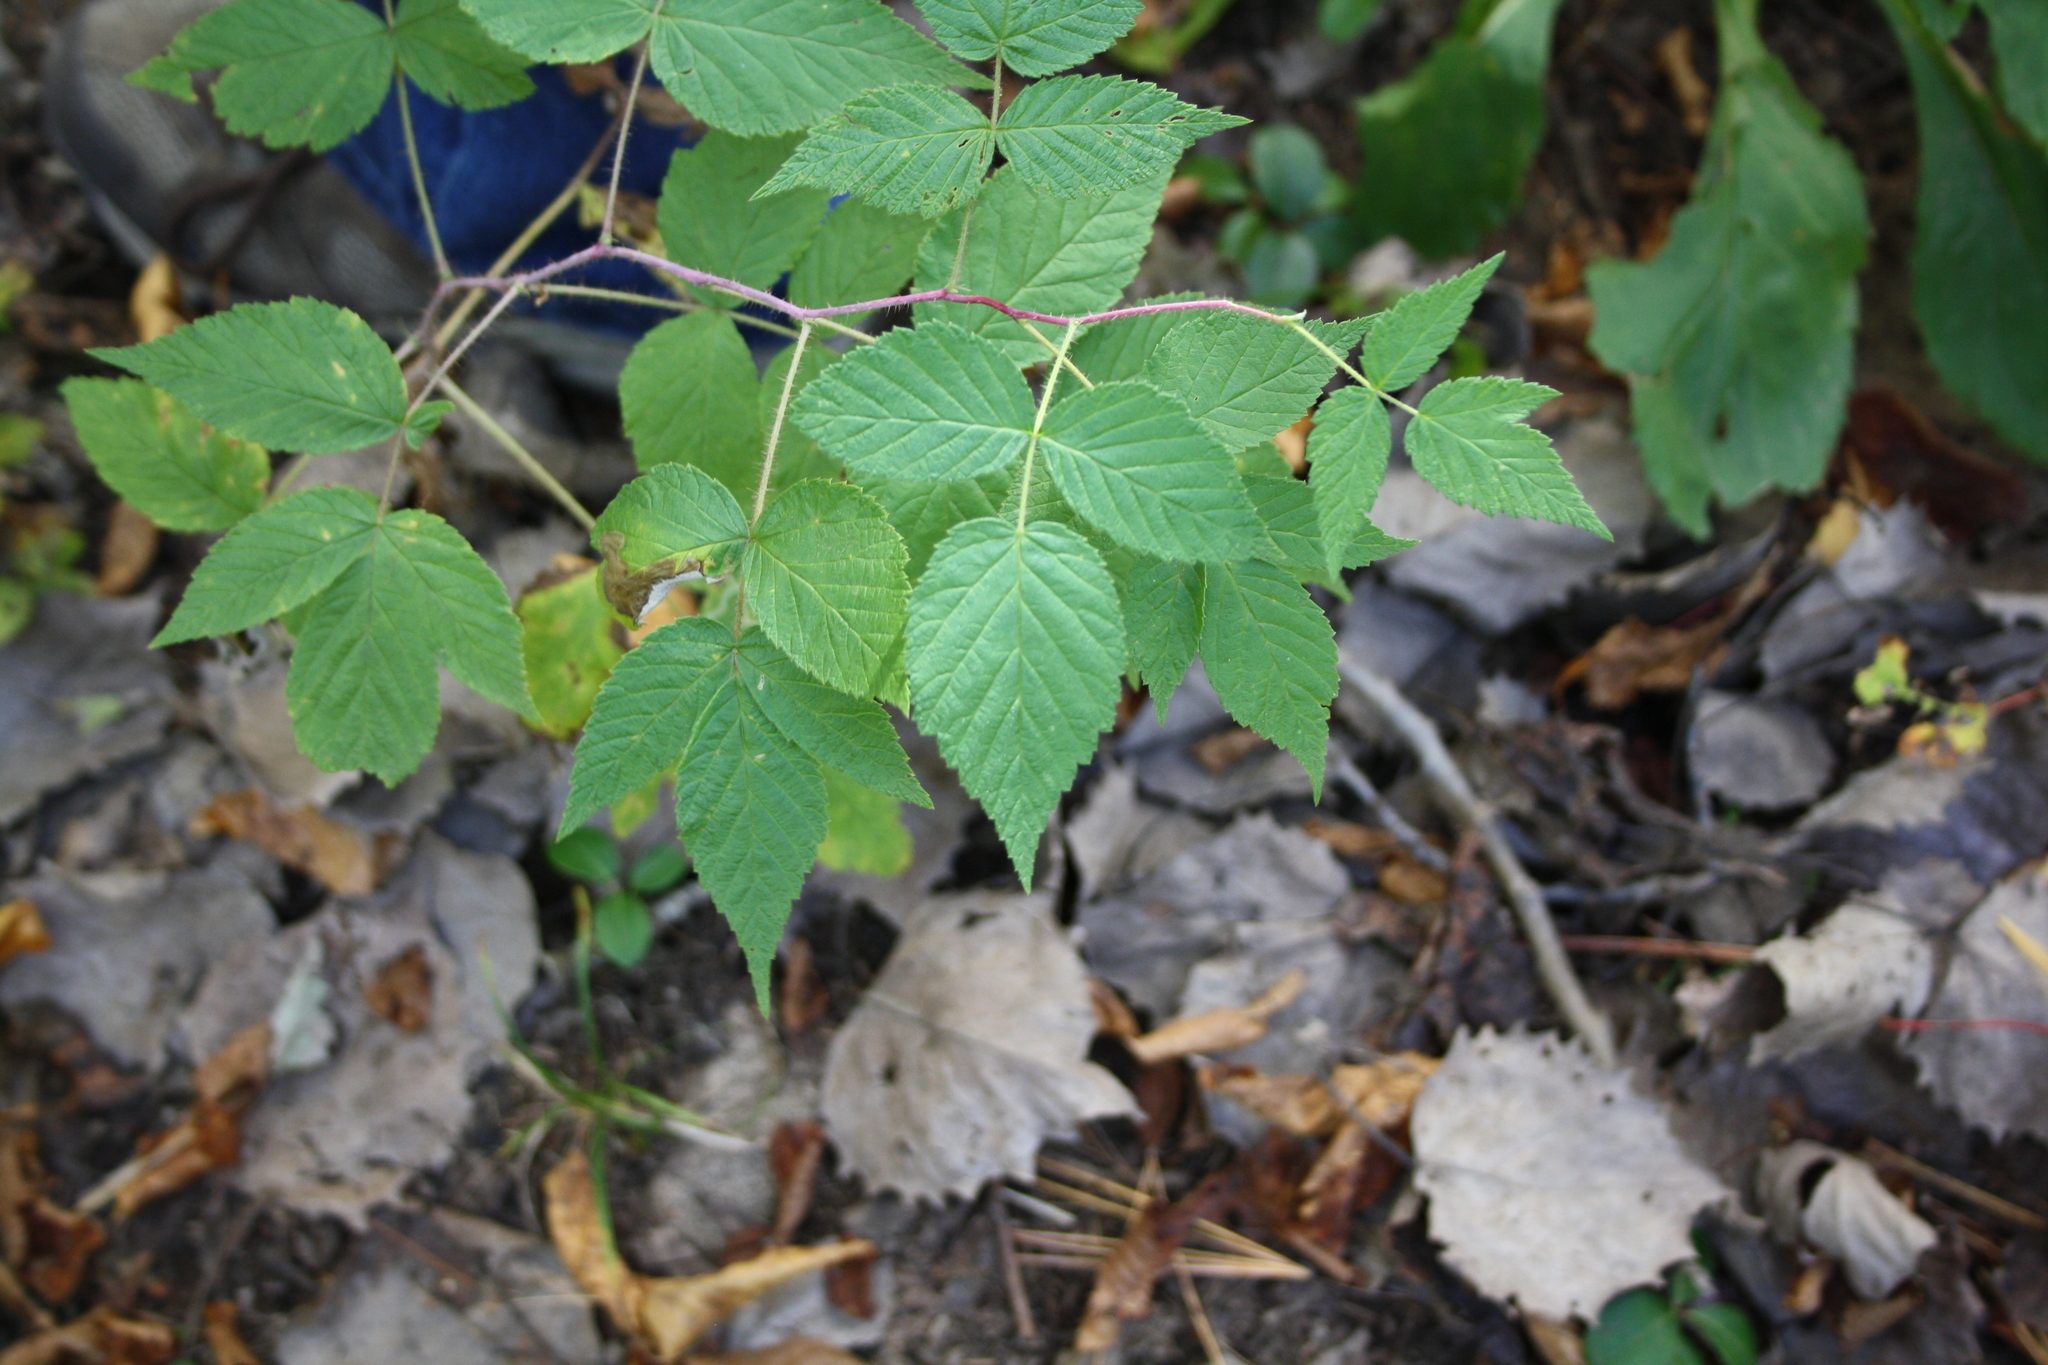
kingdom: Plantae
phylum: Tracheophyta
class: Magnoliopsida
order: Rosales
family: Rosaceae
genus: Rubus
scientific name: Rubus idaeus
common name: Raspberry
